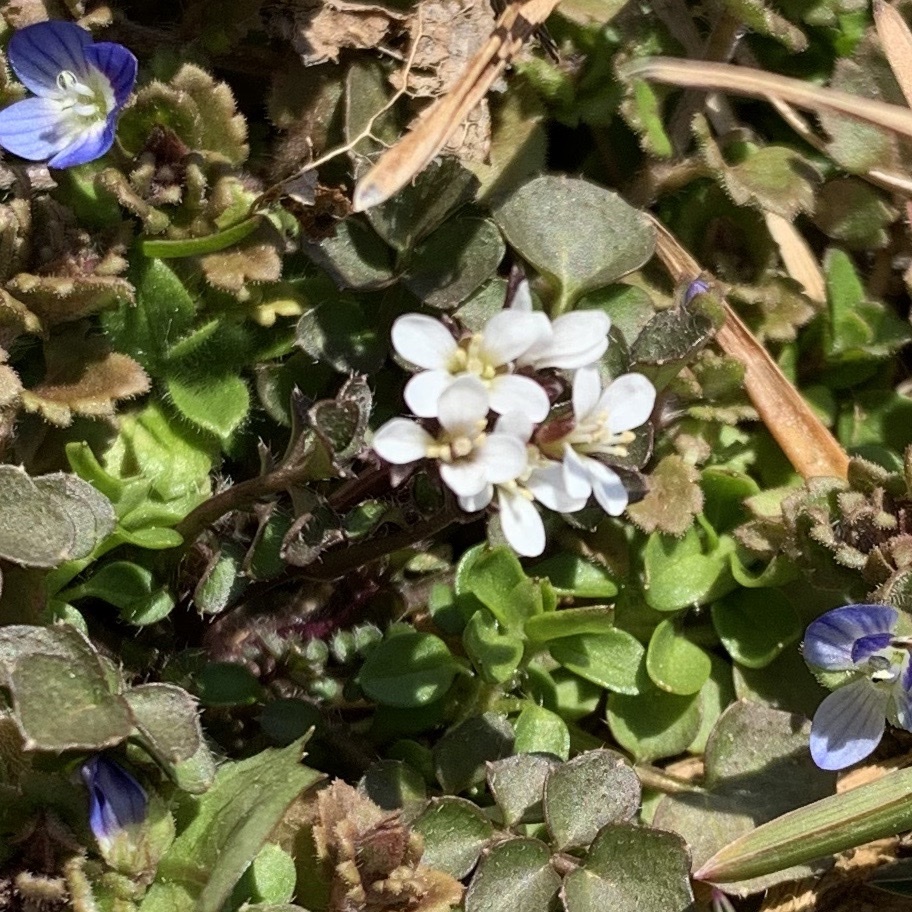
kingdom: Plantae
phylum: Tracheophyta
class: Magnoliopsida
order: Brassicales
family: Brassicaceae
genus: Cardamine
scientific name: Cardamine hirsuta
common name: Hairy bittercress
